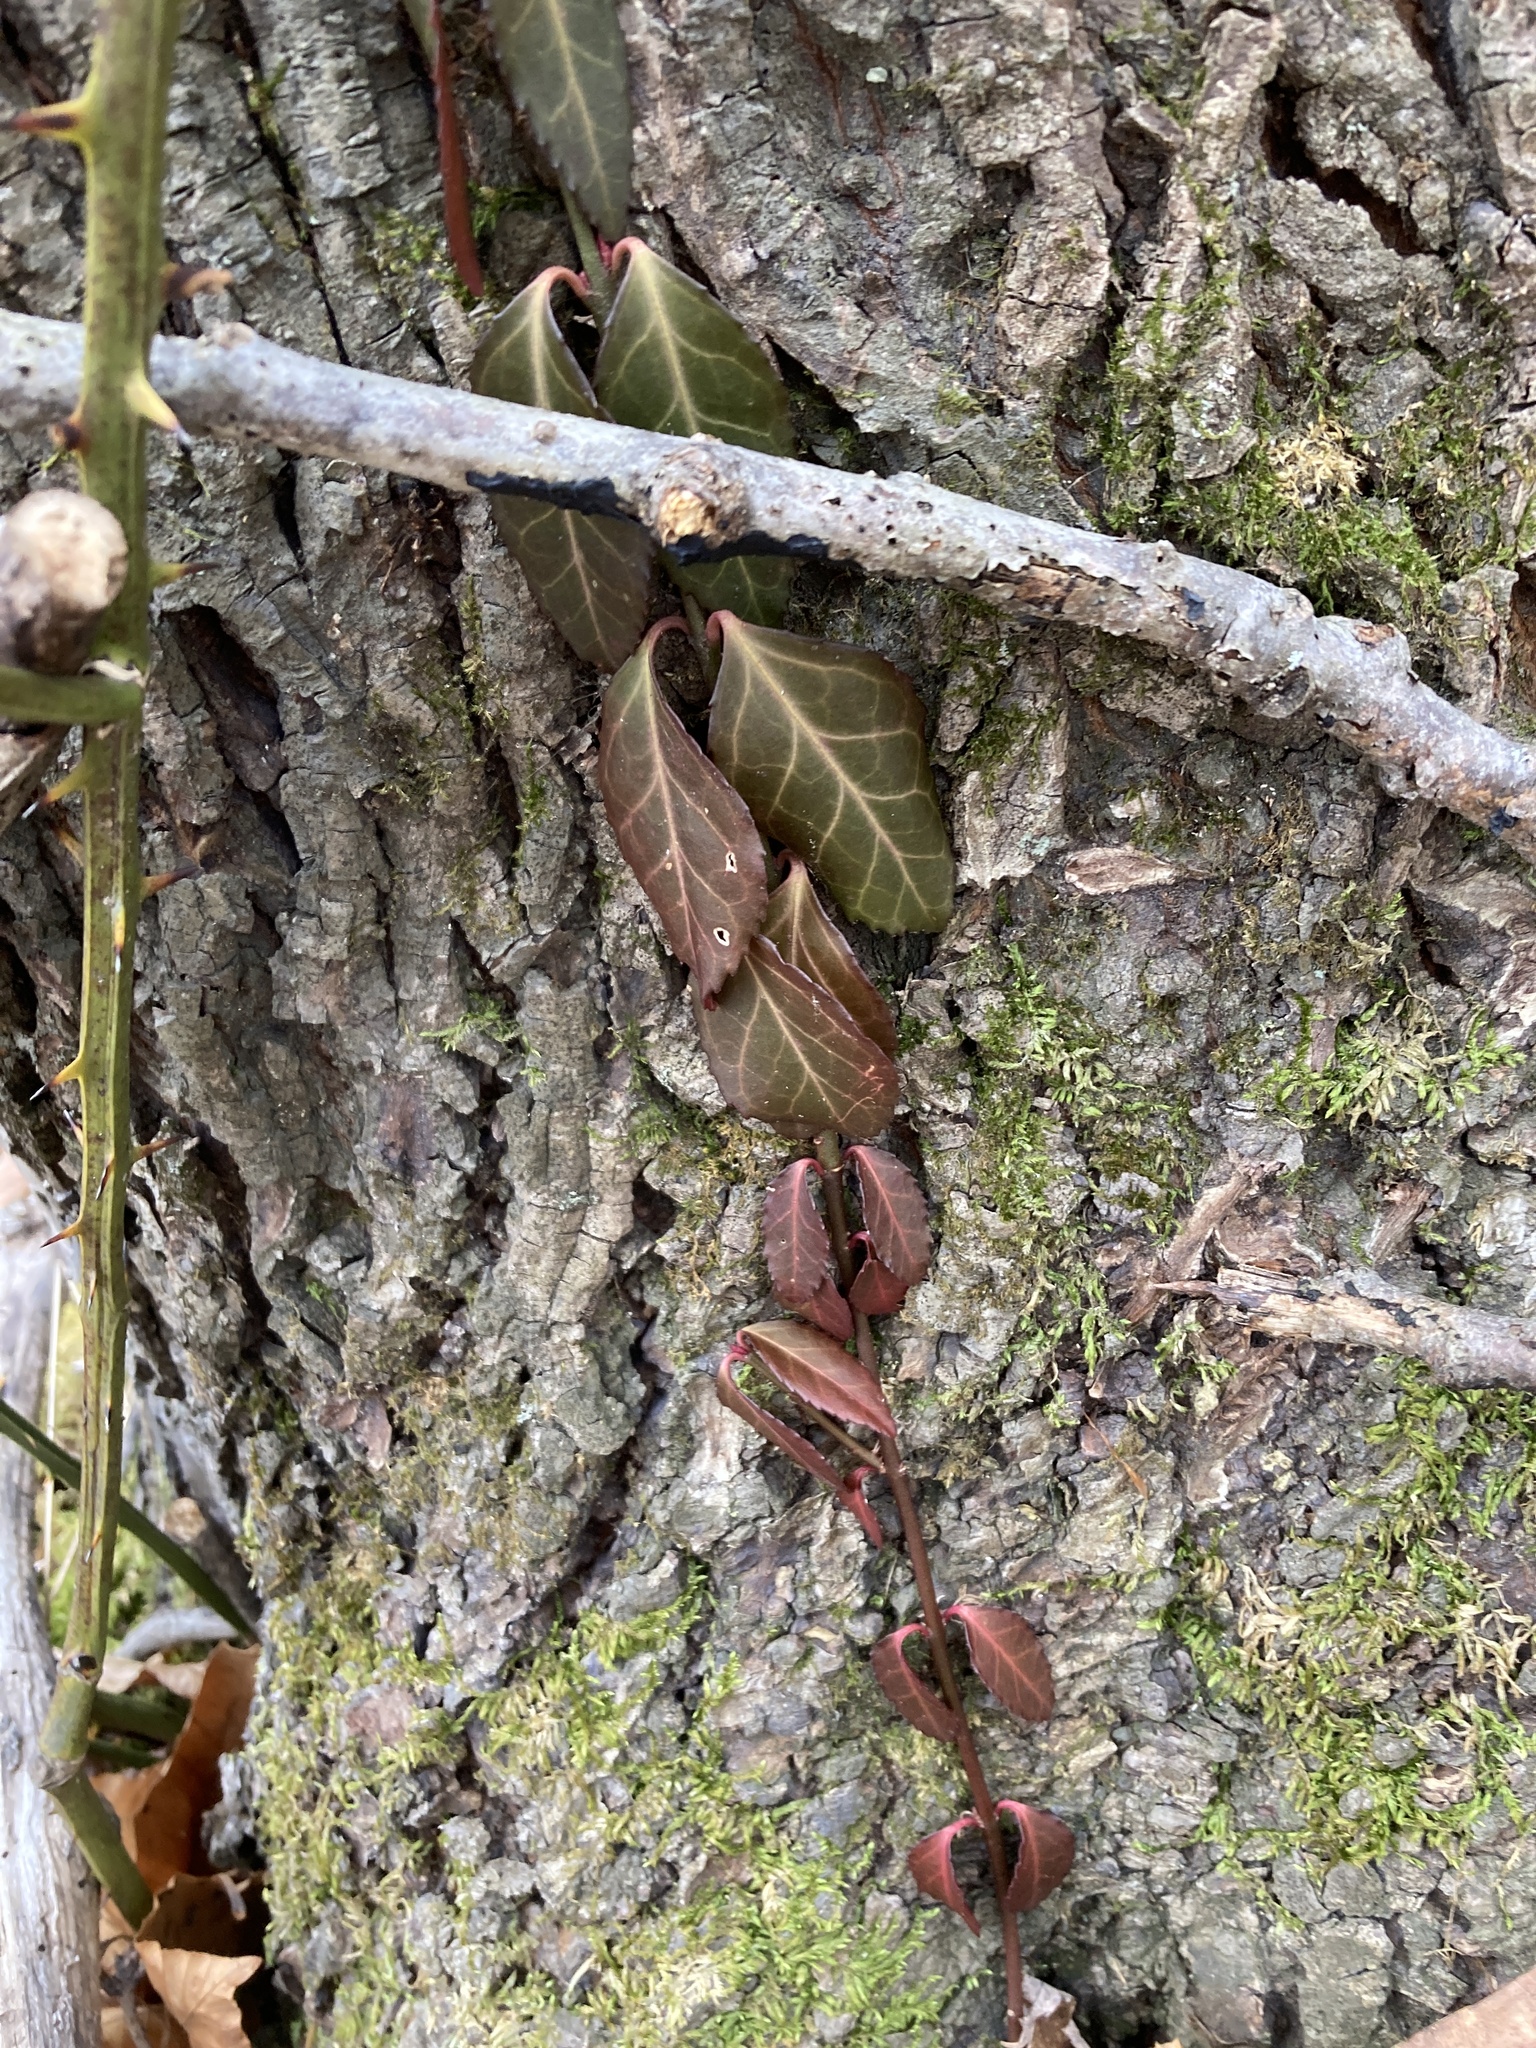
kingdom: Plantae
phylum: Tracheophyta
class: Magnoliopsida
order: Celastrales
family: Celastraceae
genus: Euonymus
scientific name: Euonymus fortunei
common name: Climbing euonymus
